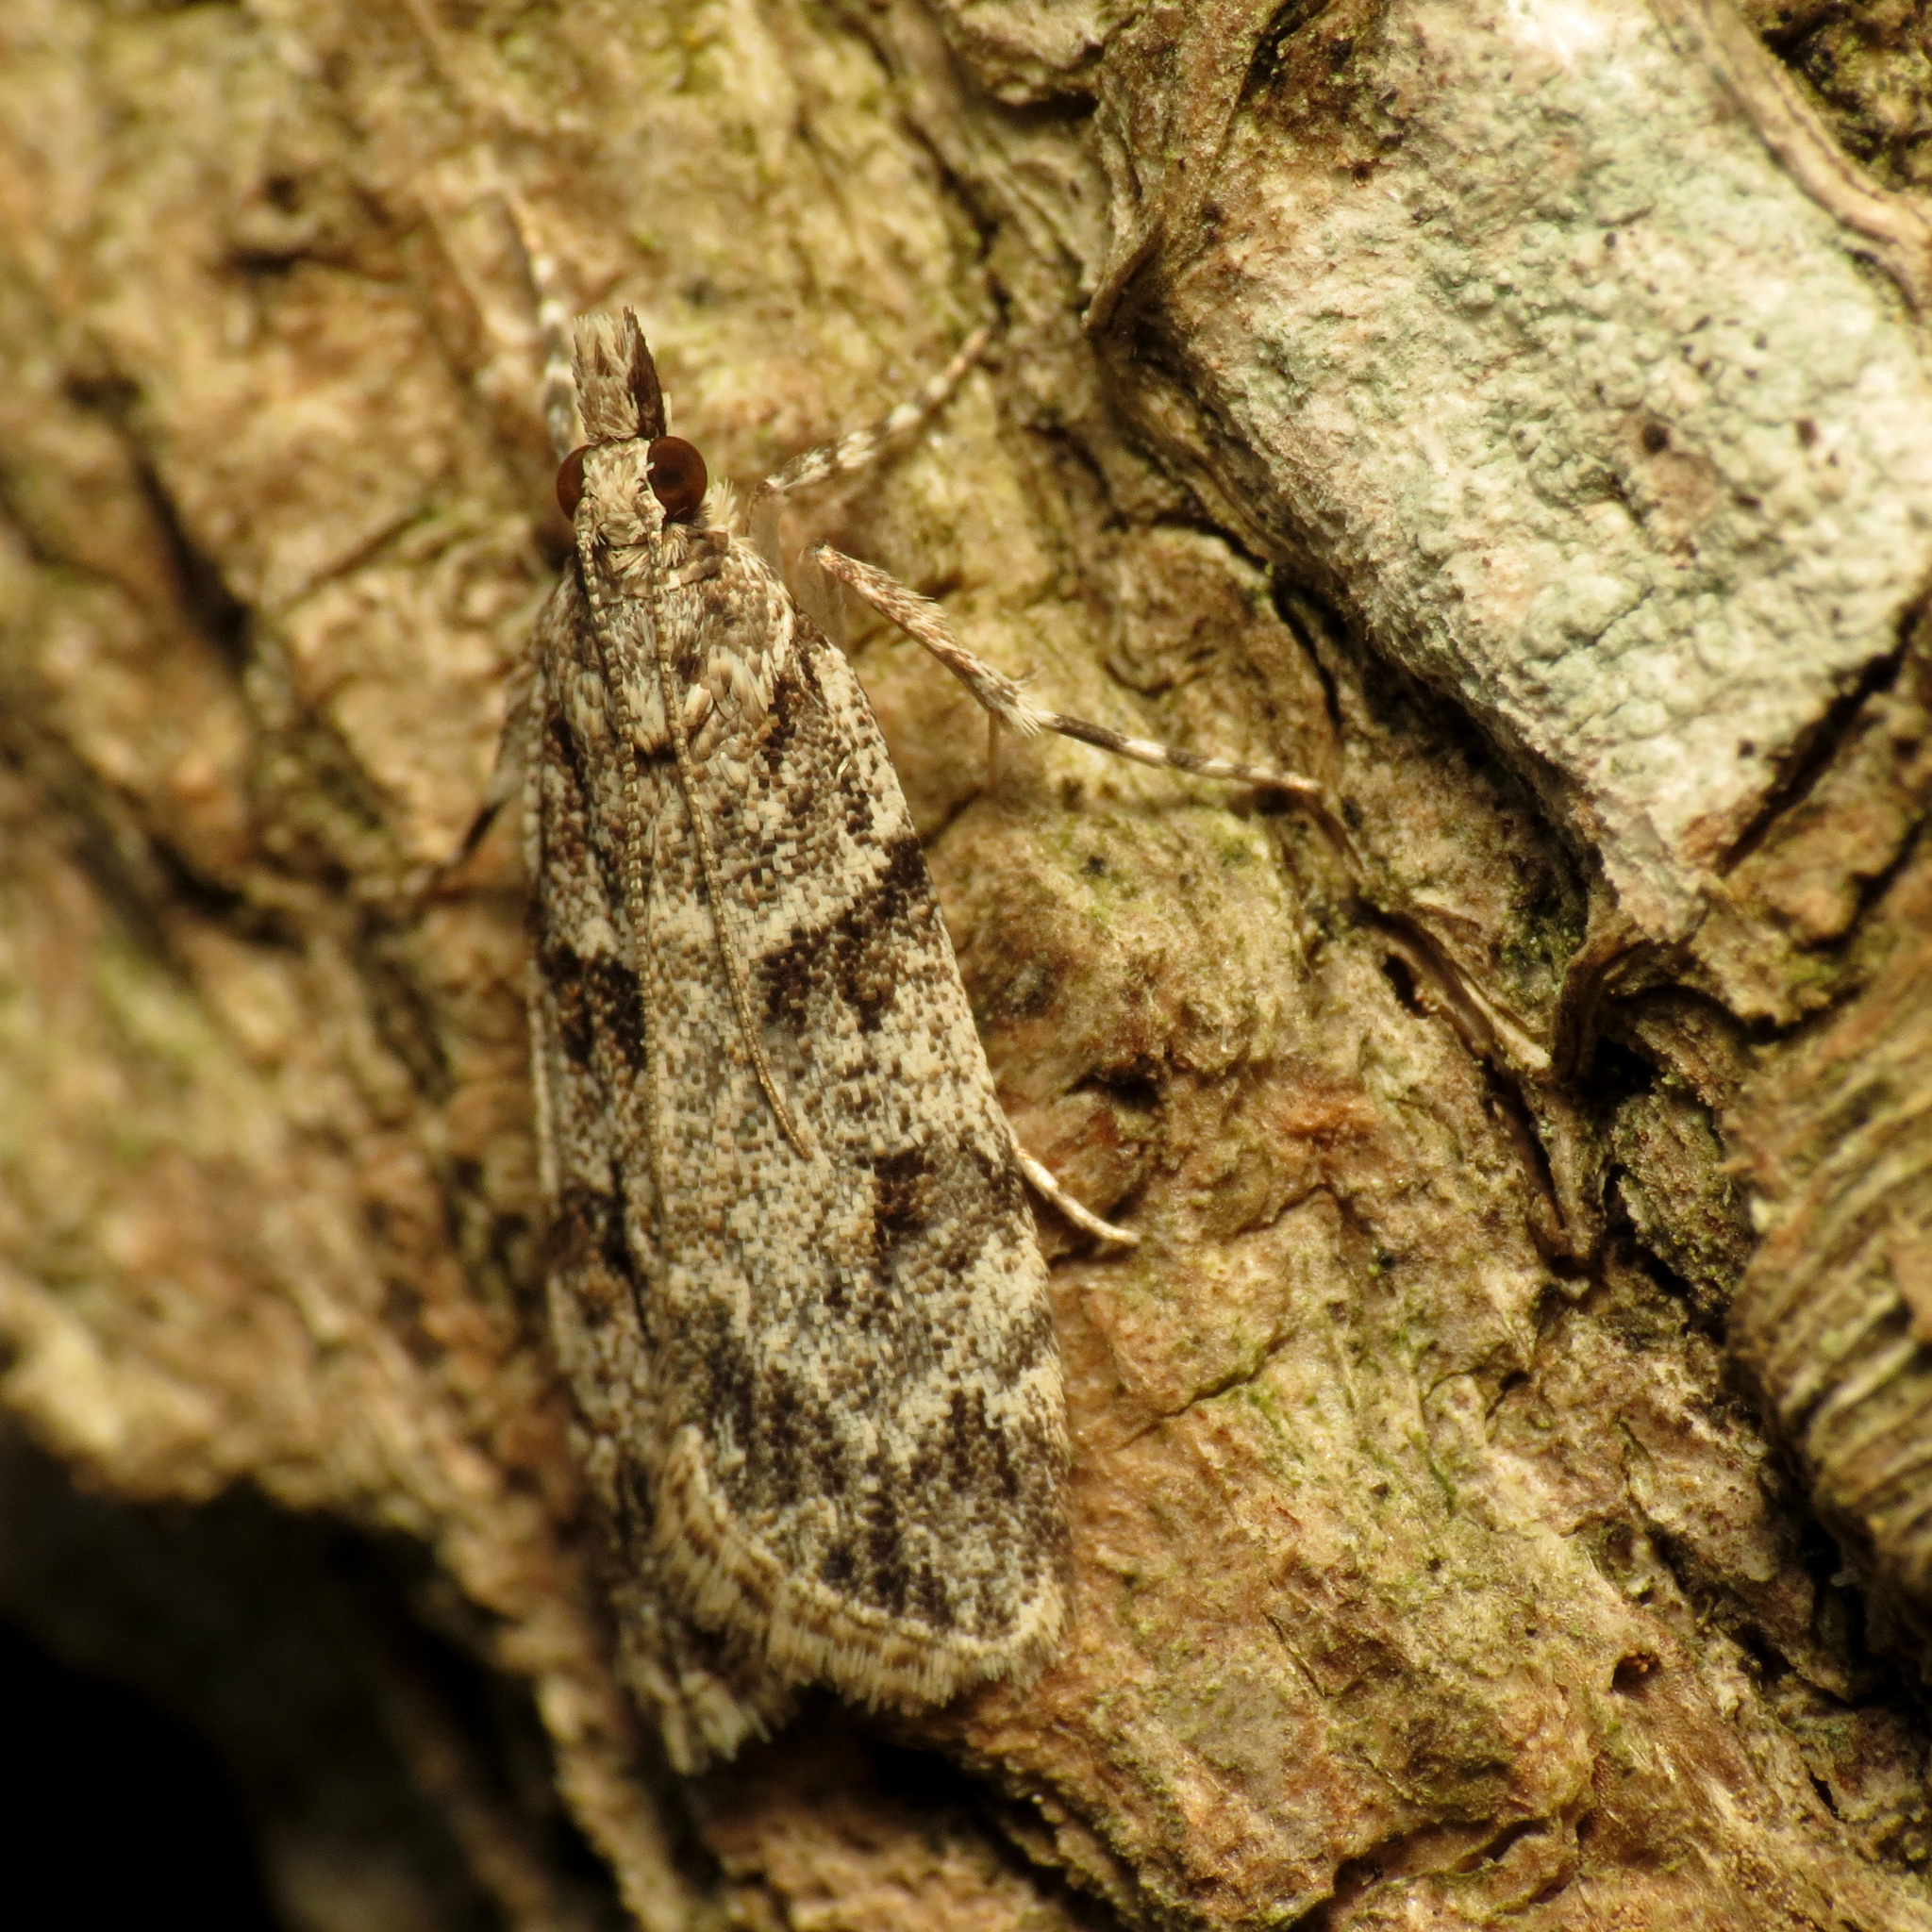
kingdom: Animalia
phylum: Arthropoda
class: Insecta
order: Lepidoptera
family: Crambidae
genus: Scoparia
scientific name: Scoparia biplagialis
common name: Double-striped scoparia moth
